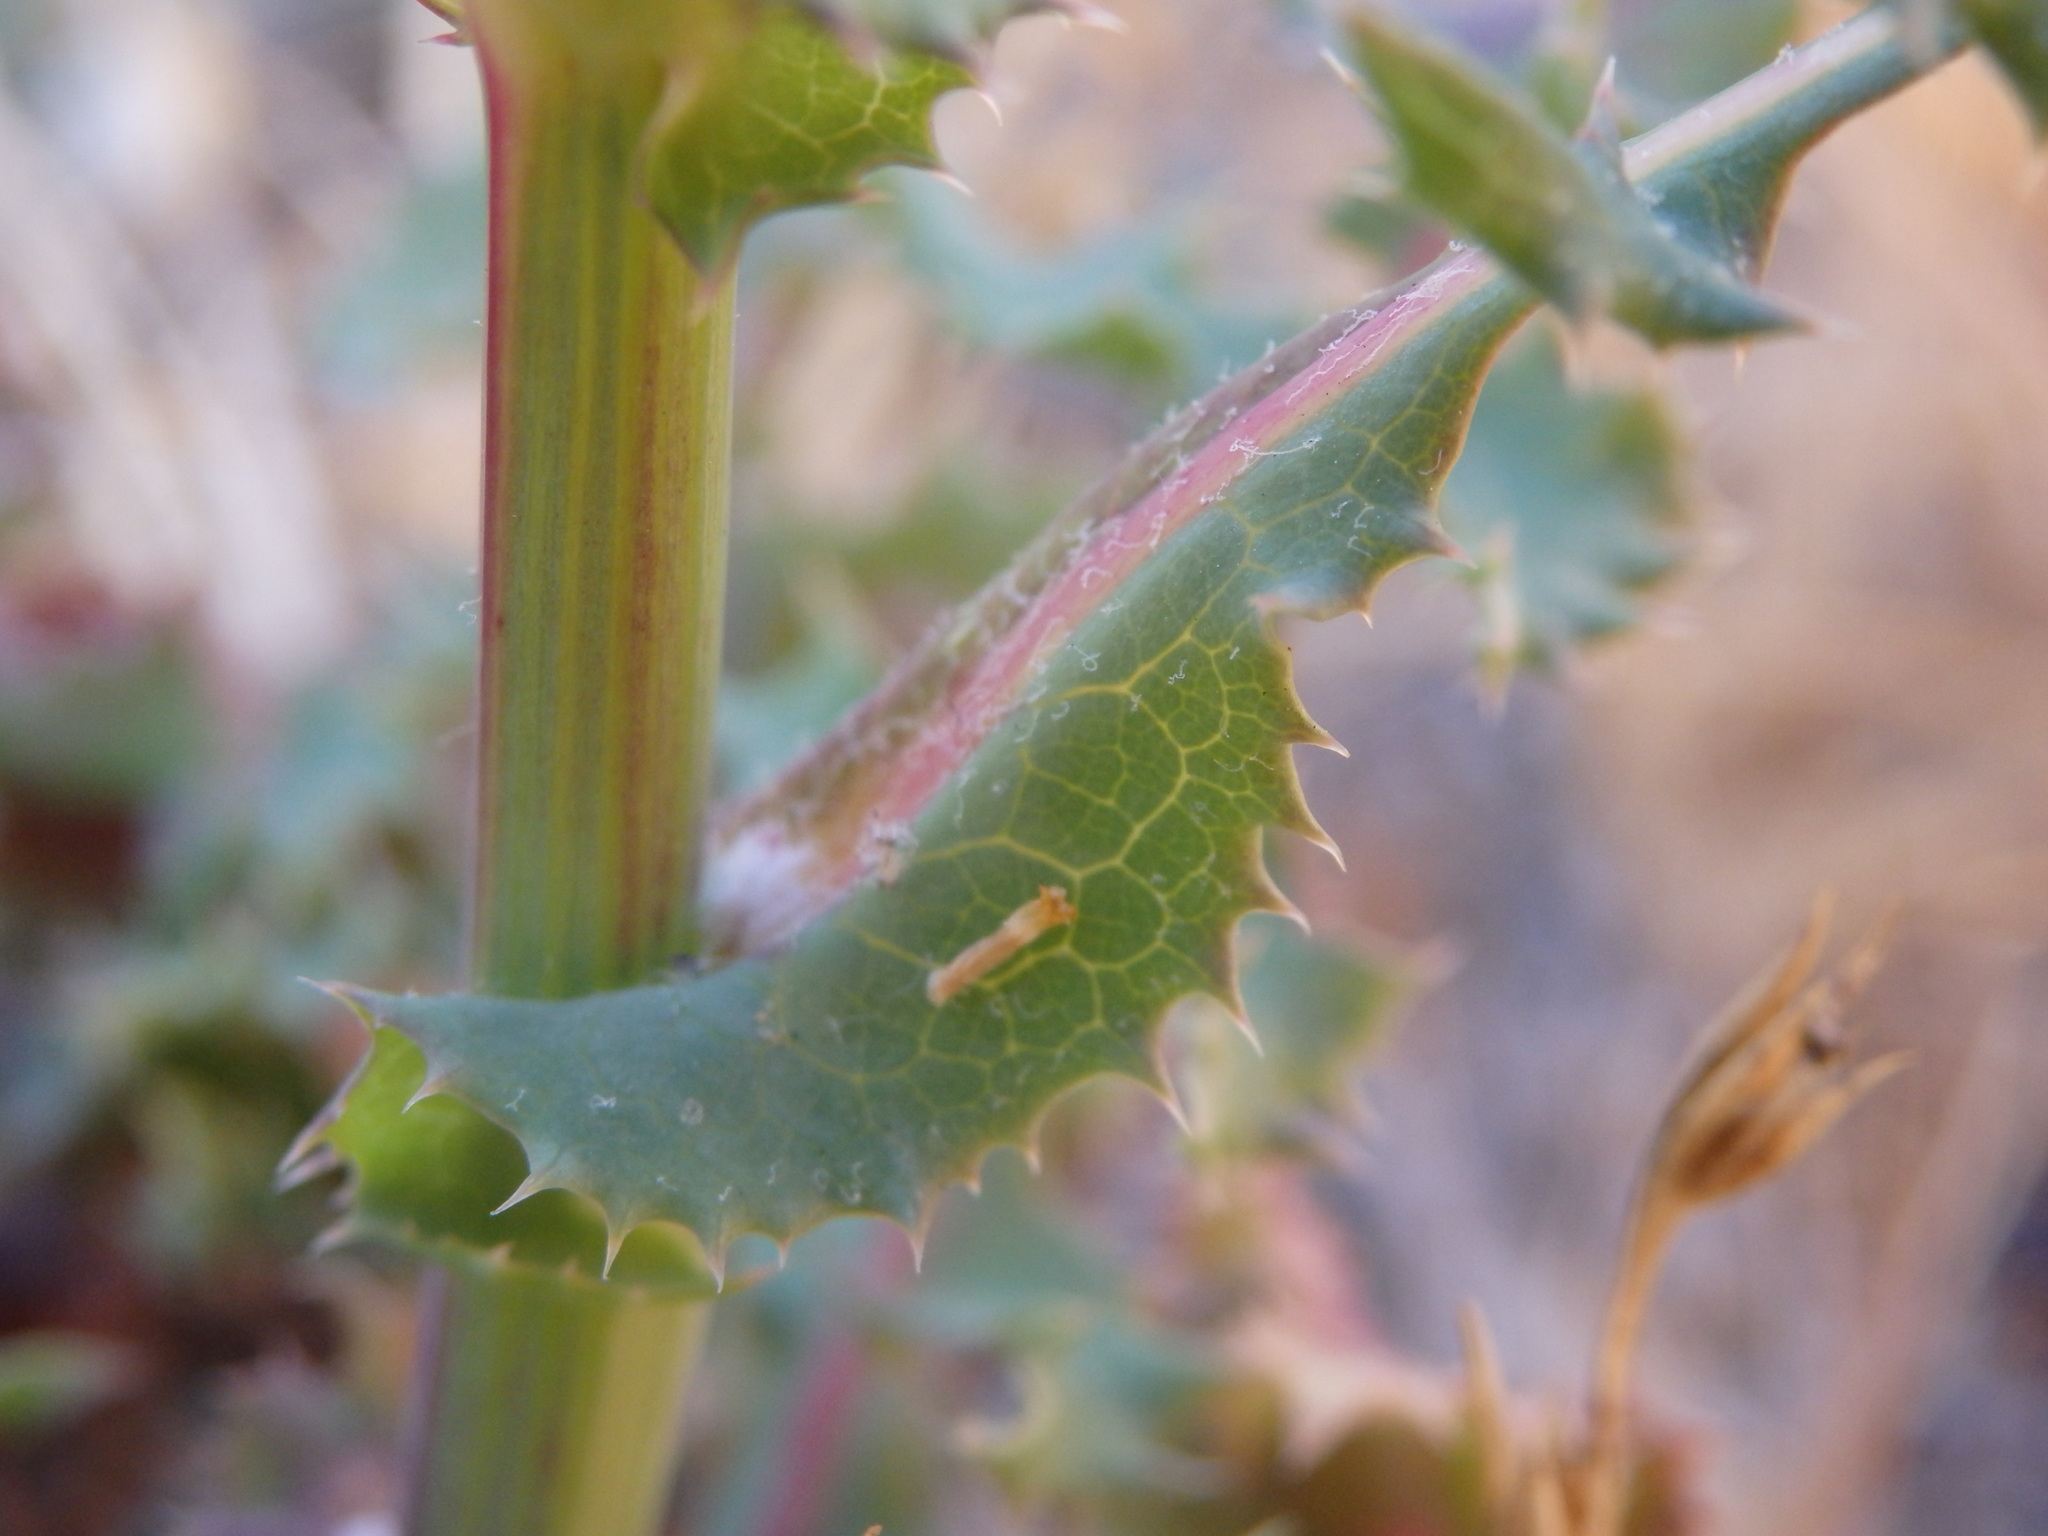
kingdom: Plantae
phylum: Tracheophyta
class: Magnoliopsida
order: Asterales
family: Asteraceae
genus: Sonchus
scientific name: Sonchus asper
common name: Prickly sow-thistle
